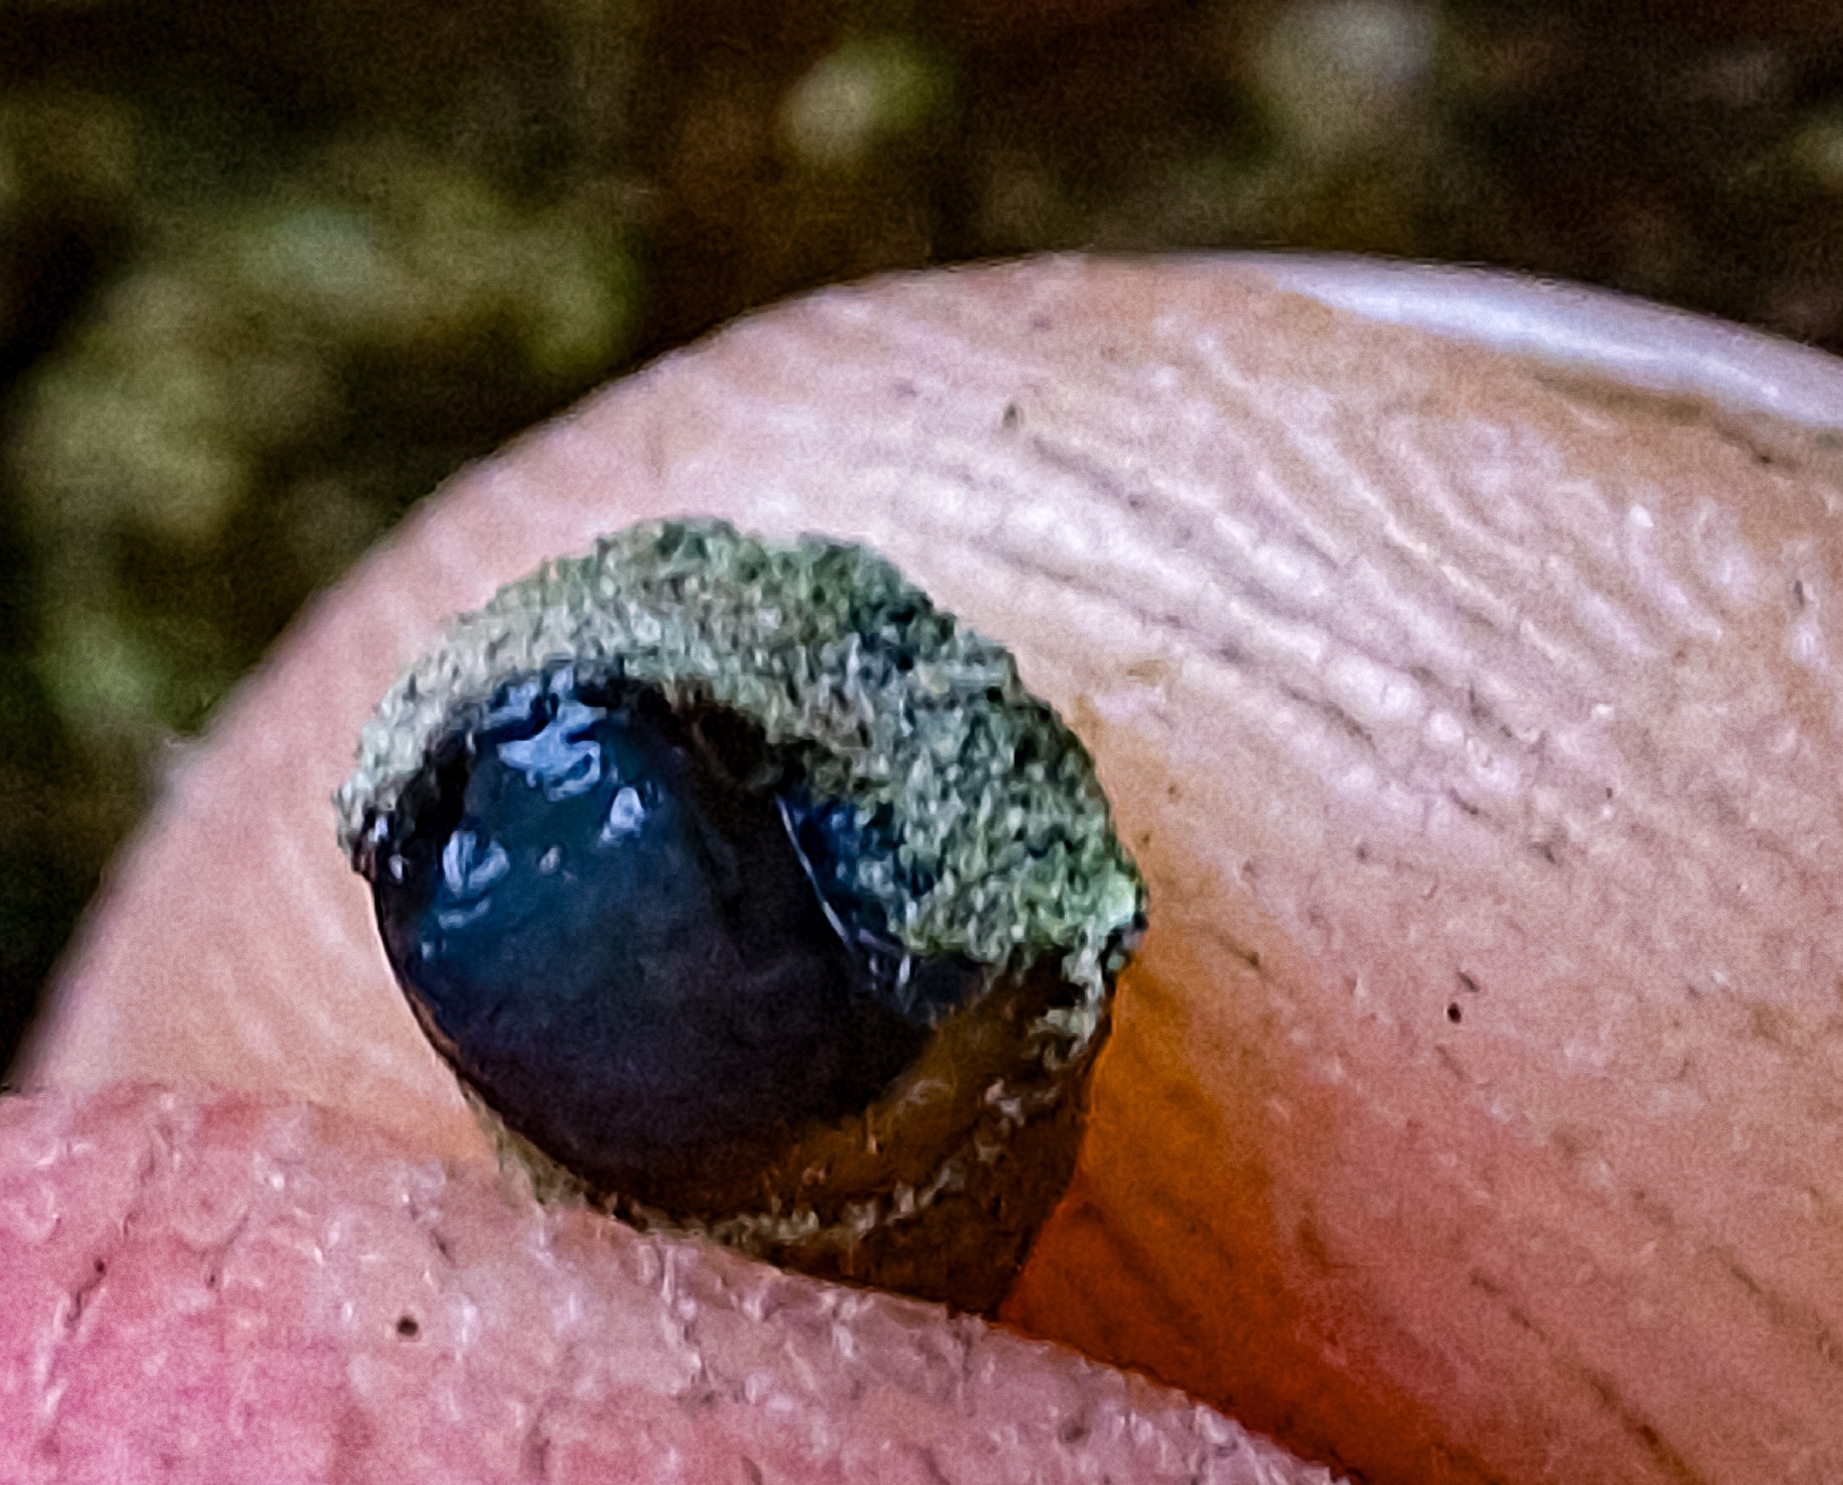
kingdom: Animalia
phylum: Mollusca
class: Gastropoda
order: Stylommatophora
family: Enidae
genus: Merdigera
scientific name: Merdigera obscura
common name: Lesser bulin
